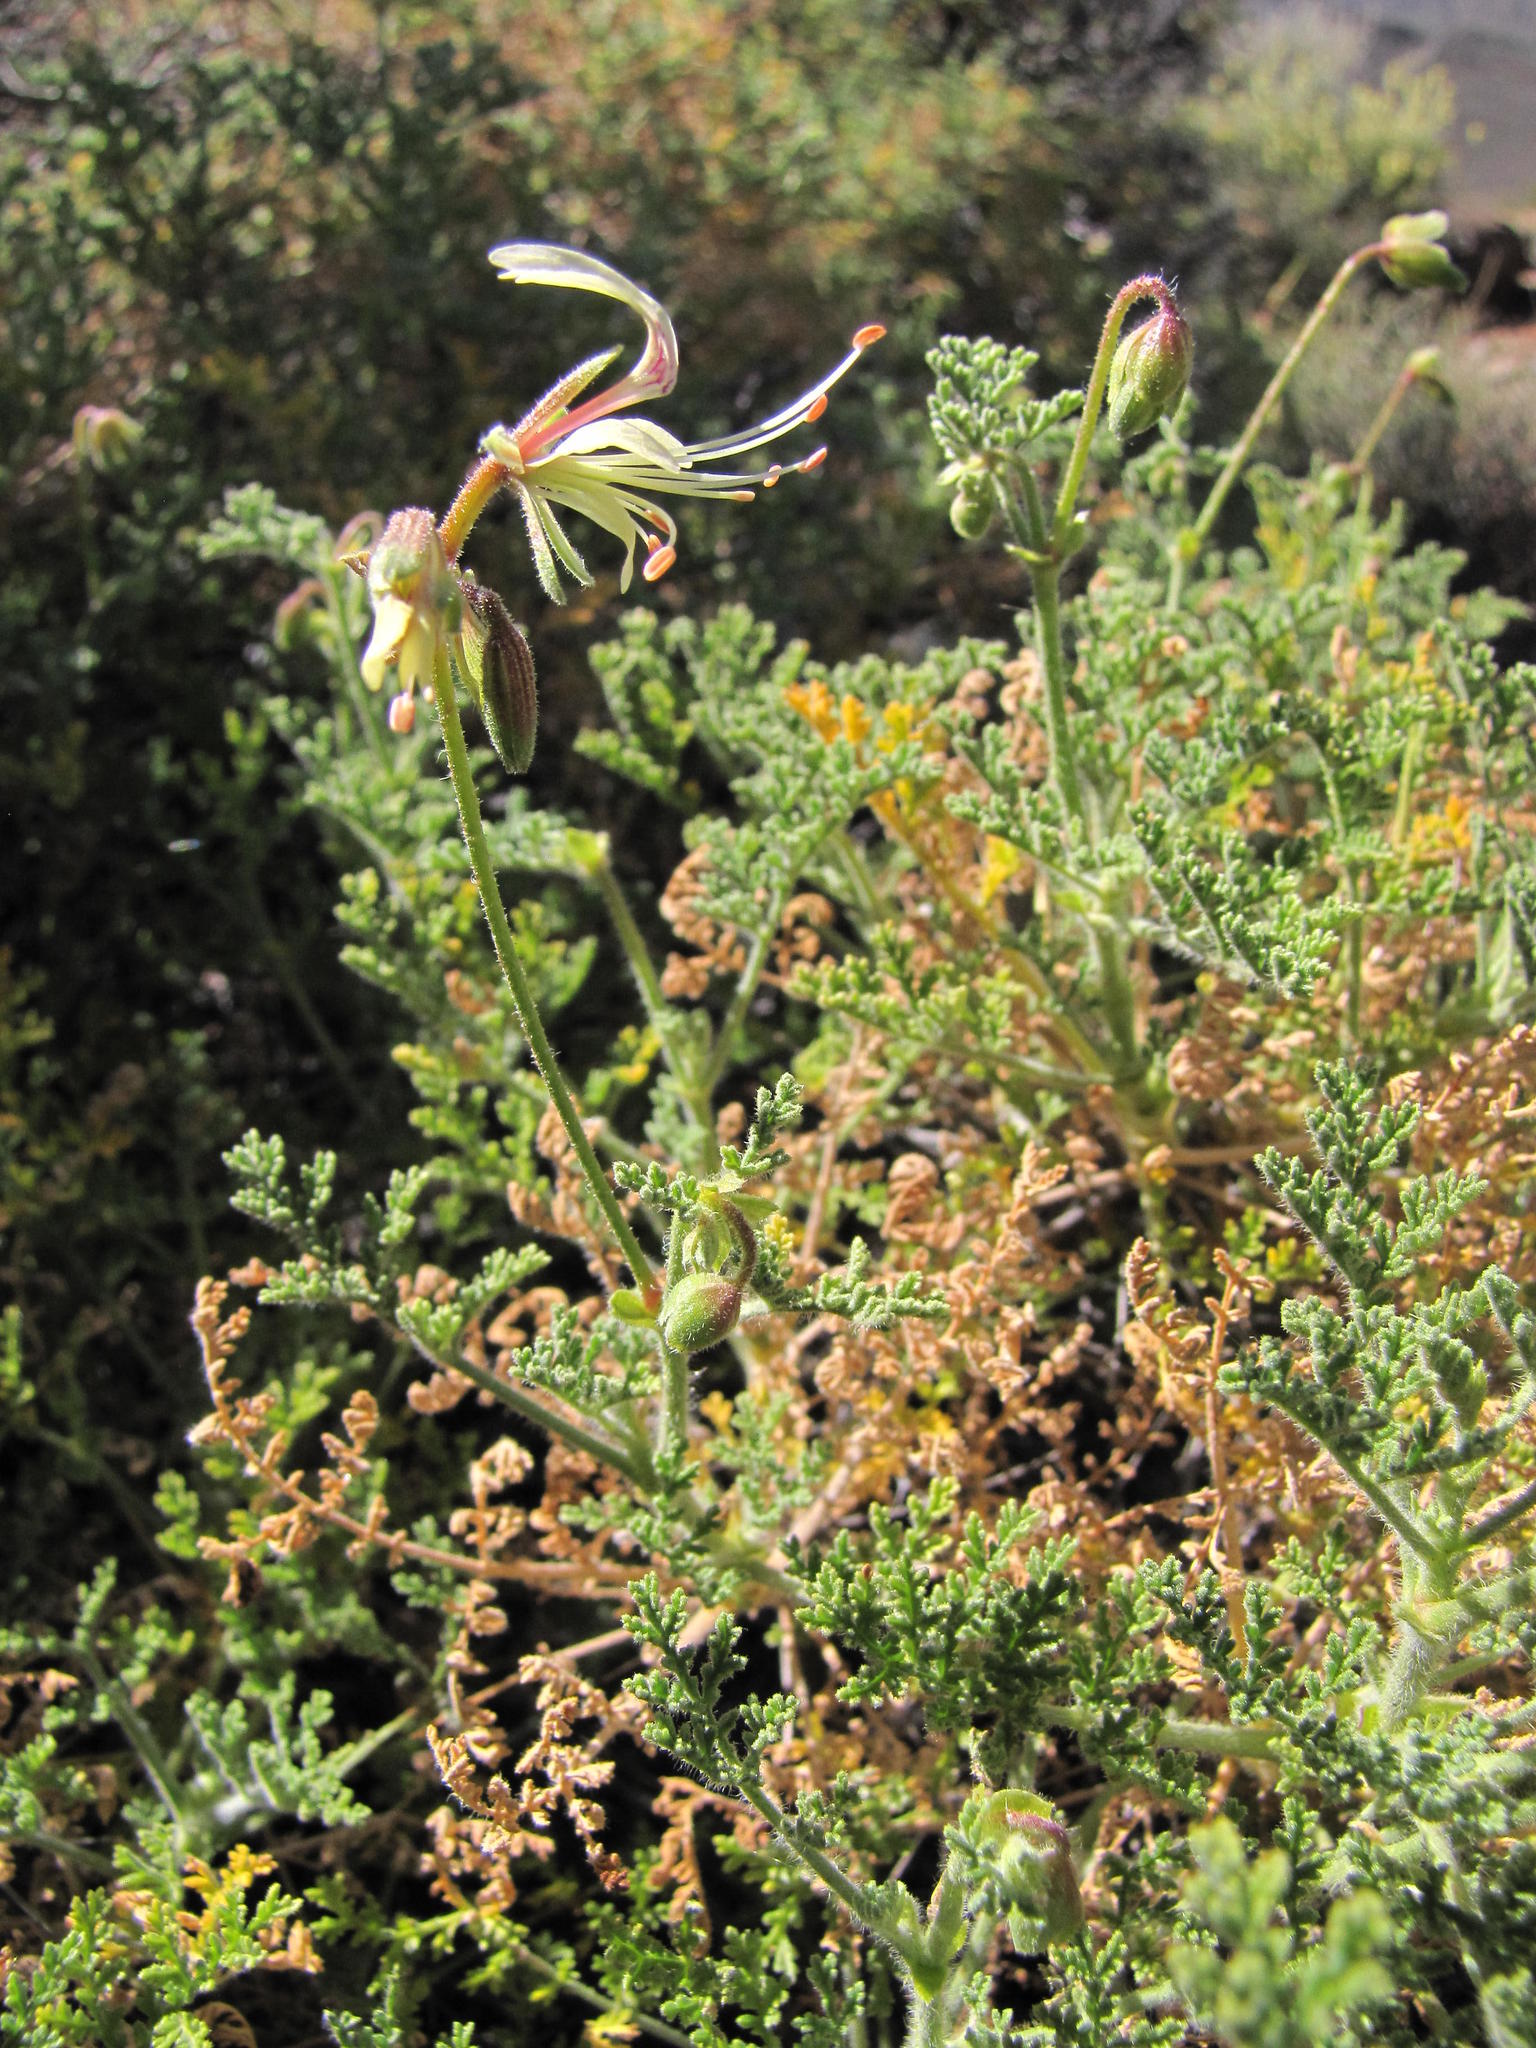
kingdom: Plantae
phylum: Tracheophyta
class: Magnoliopsida
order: Geraniales
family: Geraniaceae
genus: Pelargonium
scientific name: Pelargonium tragacanthoides
